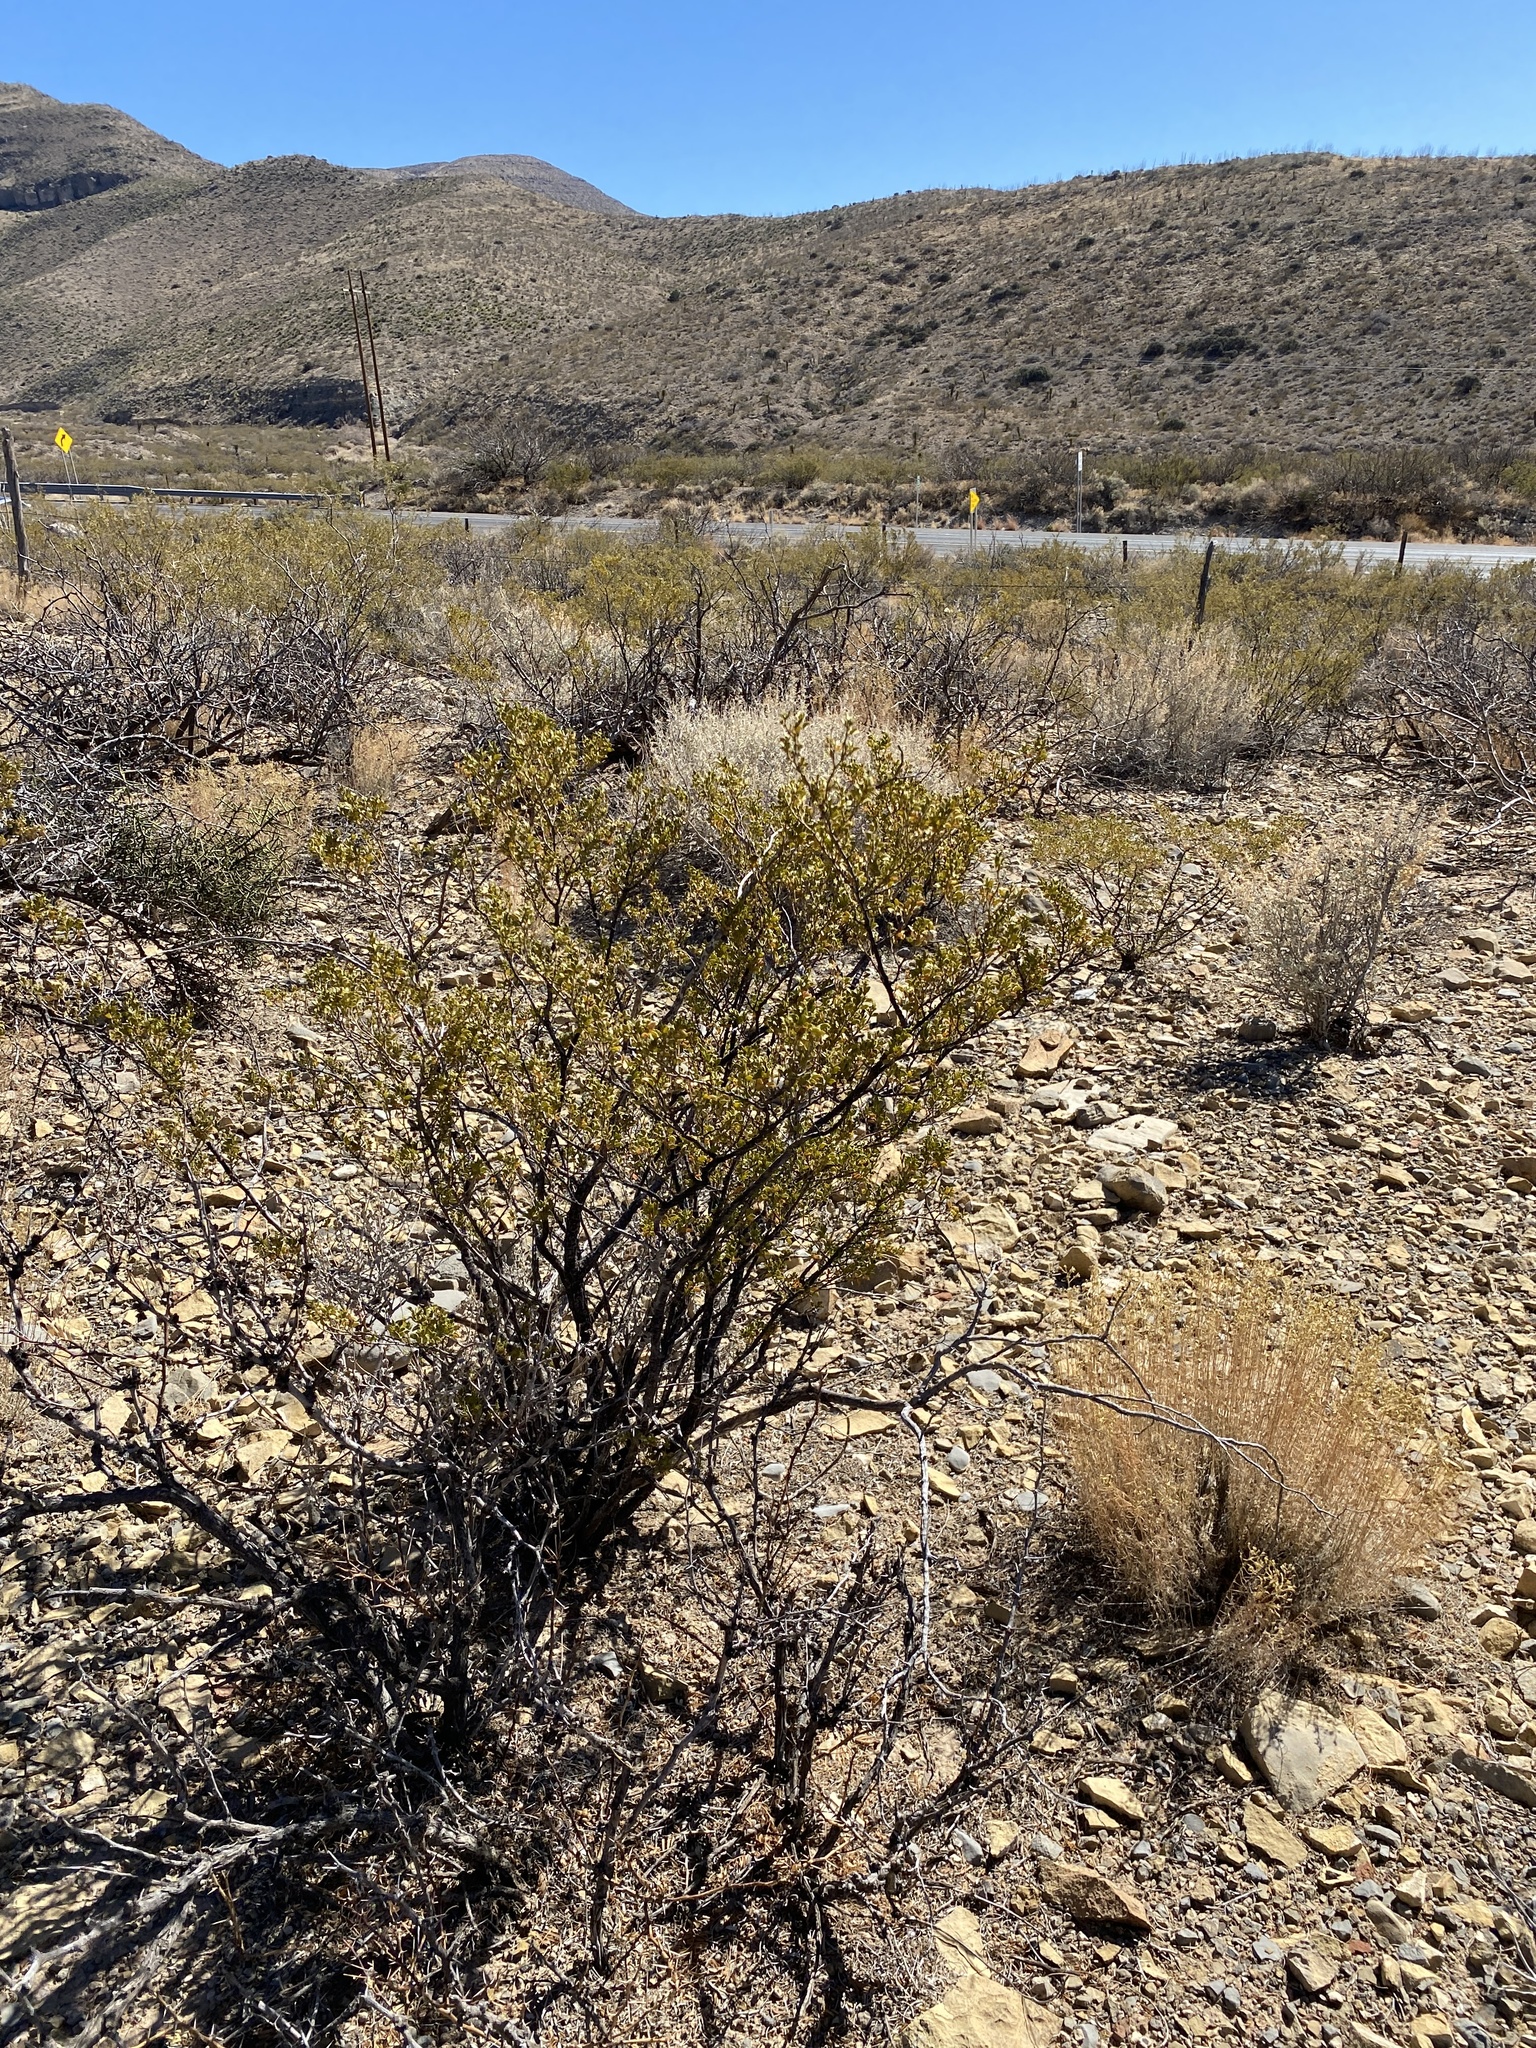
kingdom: Plantae
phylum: Tracheophyta
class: Magnoliopsida
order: Zygophyllales
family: Zygophyllaceae
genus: Larrea
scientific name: Larrea tridentata
